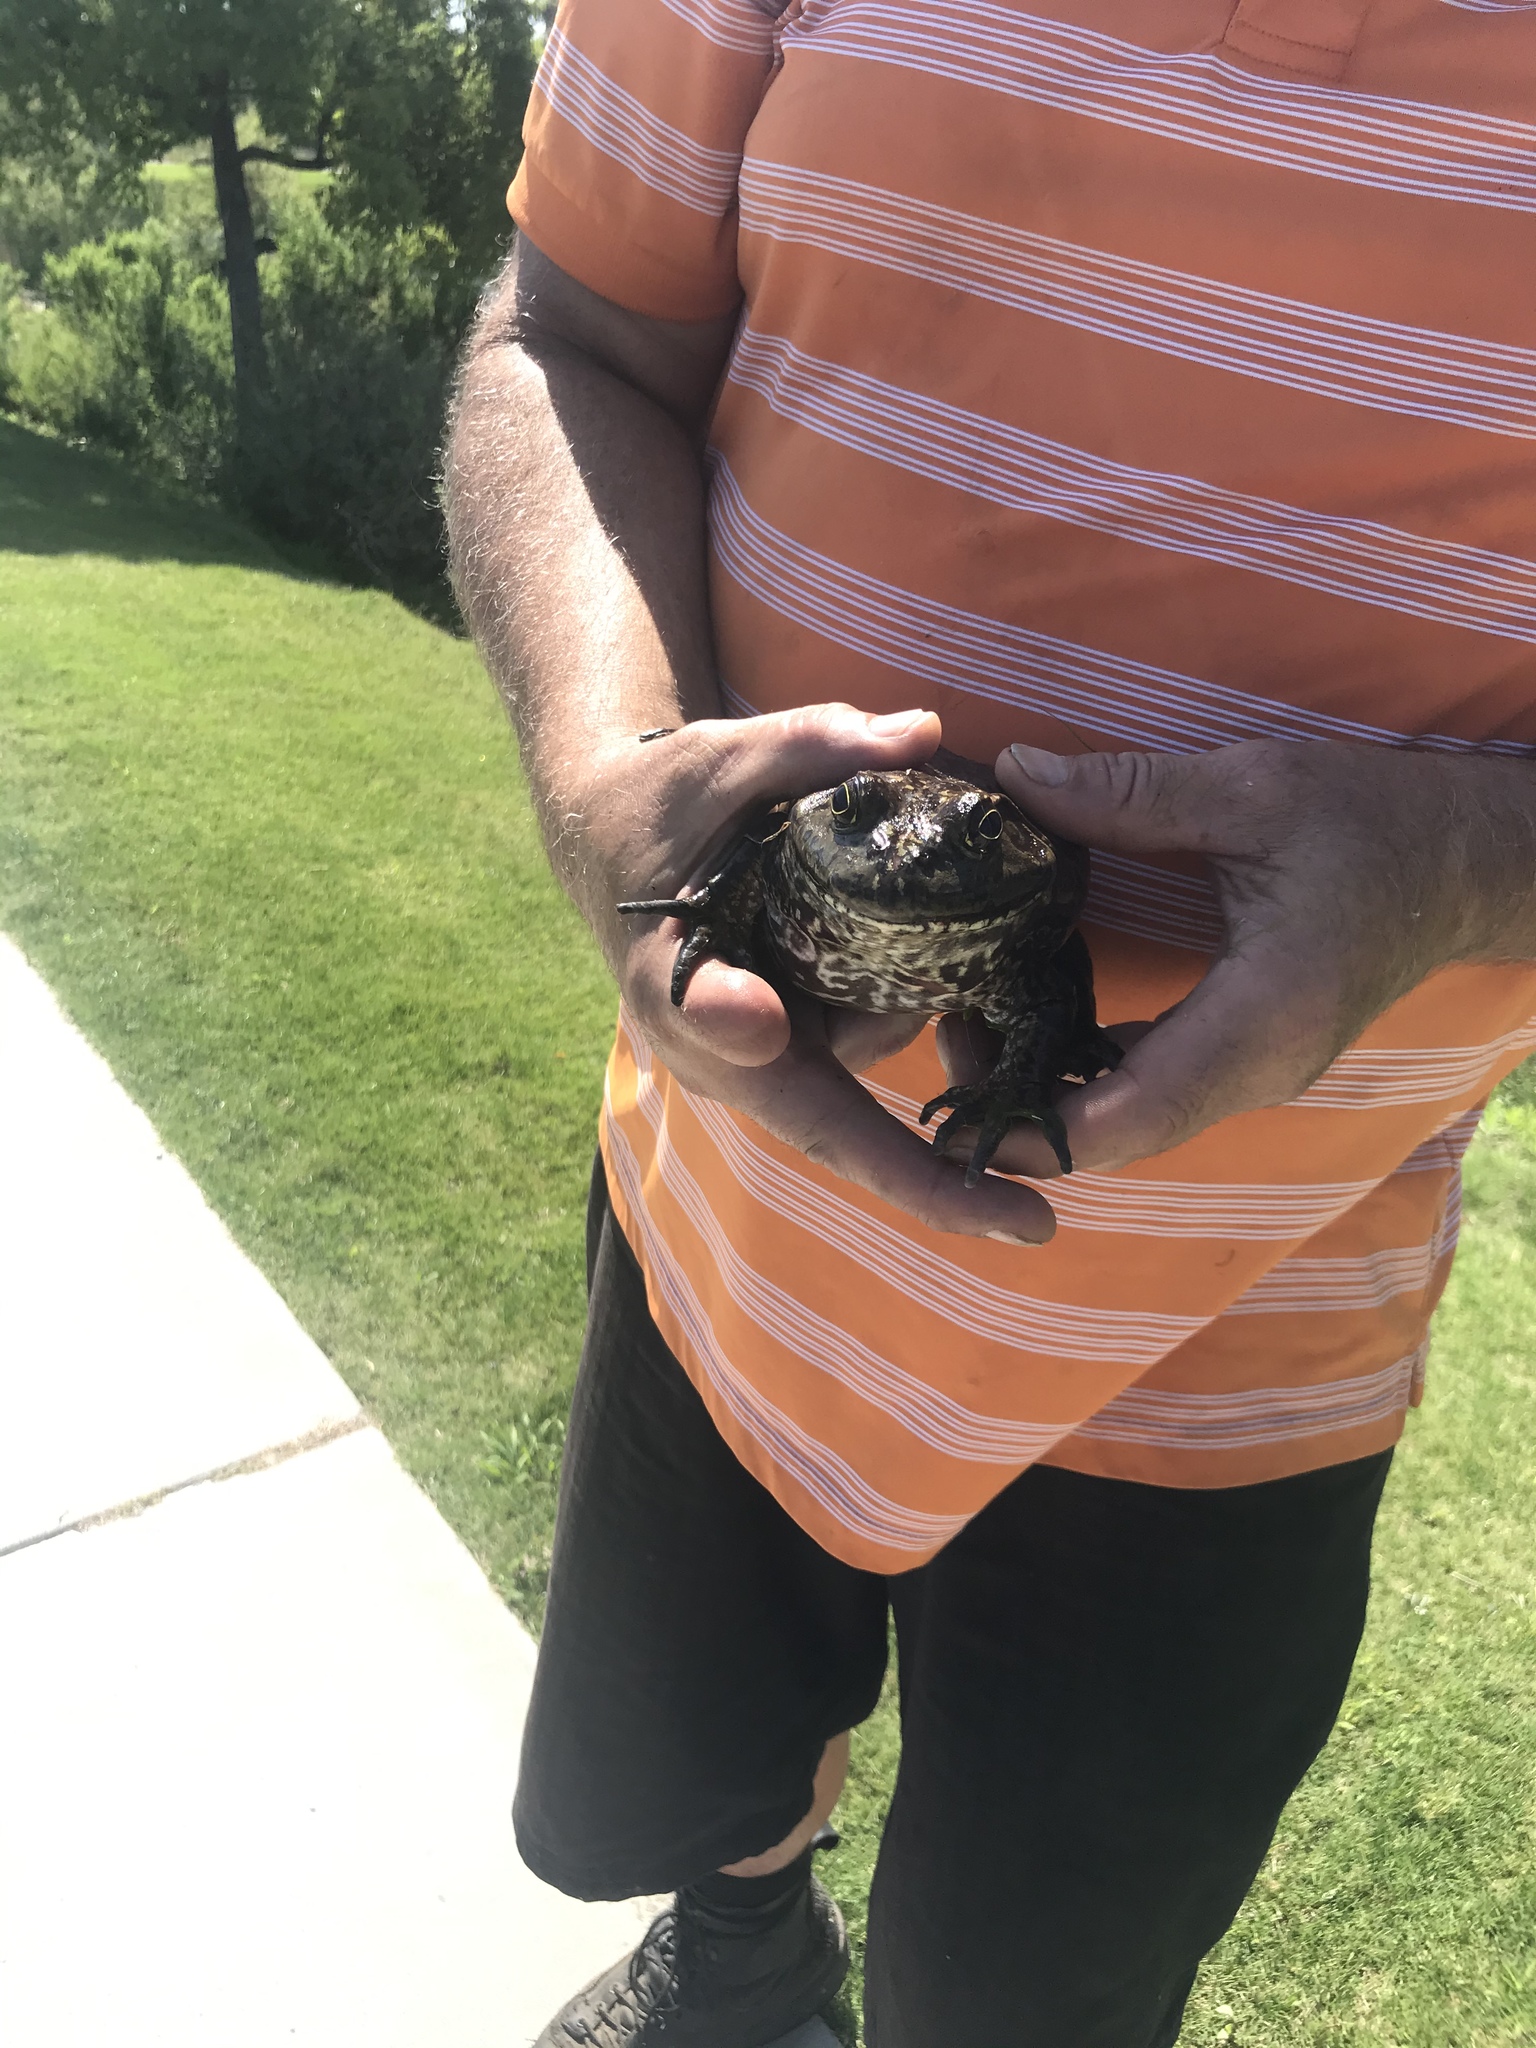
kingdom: Animalia
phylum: Chordata
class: Amphibia
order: Anura
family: Ranidae
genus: Lithobates
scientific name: Lithobates catesbeianus
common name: American bullfrog
